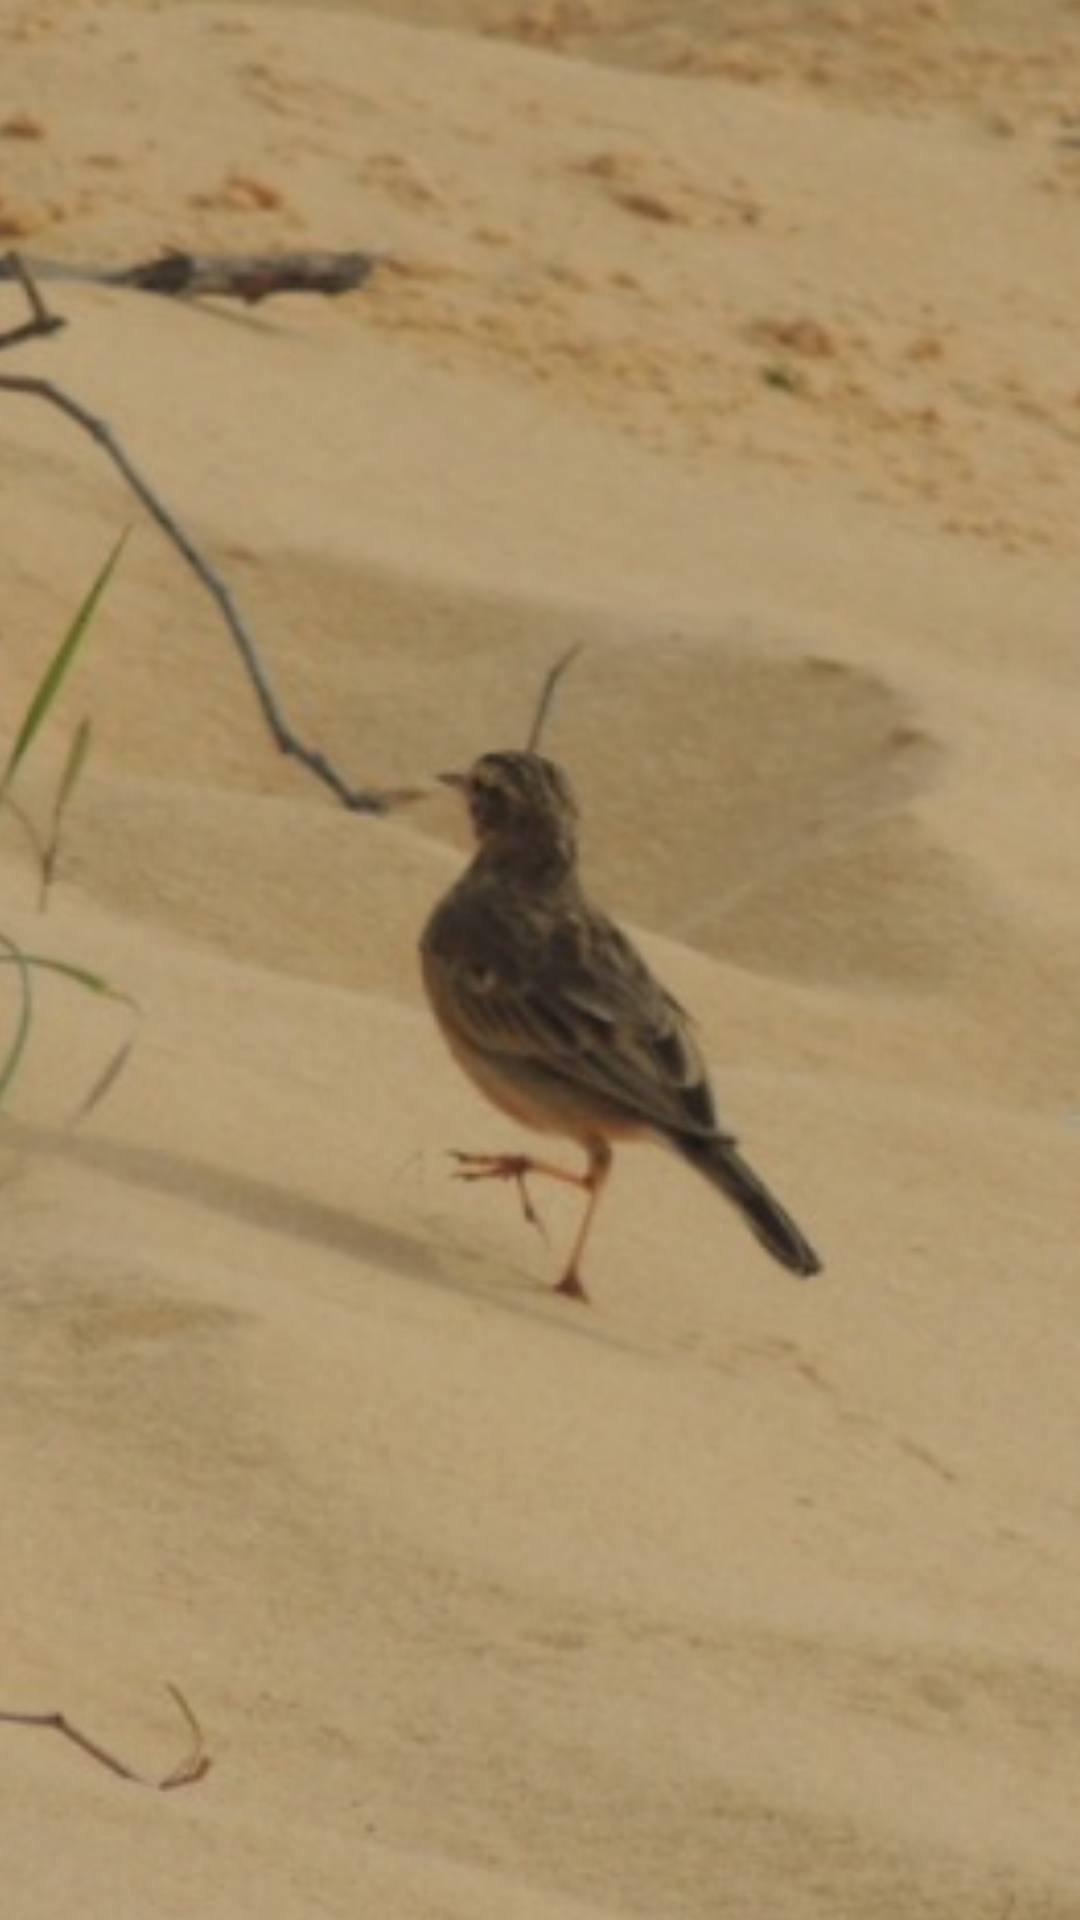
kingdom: Animalia
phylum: Chordata
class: Aves
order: Passeriformes
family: Motacillidae
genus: Anthus
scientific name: Anthus rufulus
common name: Paddyfield pipit
